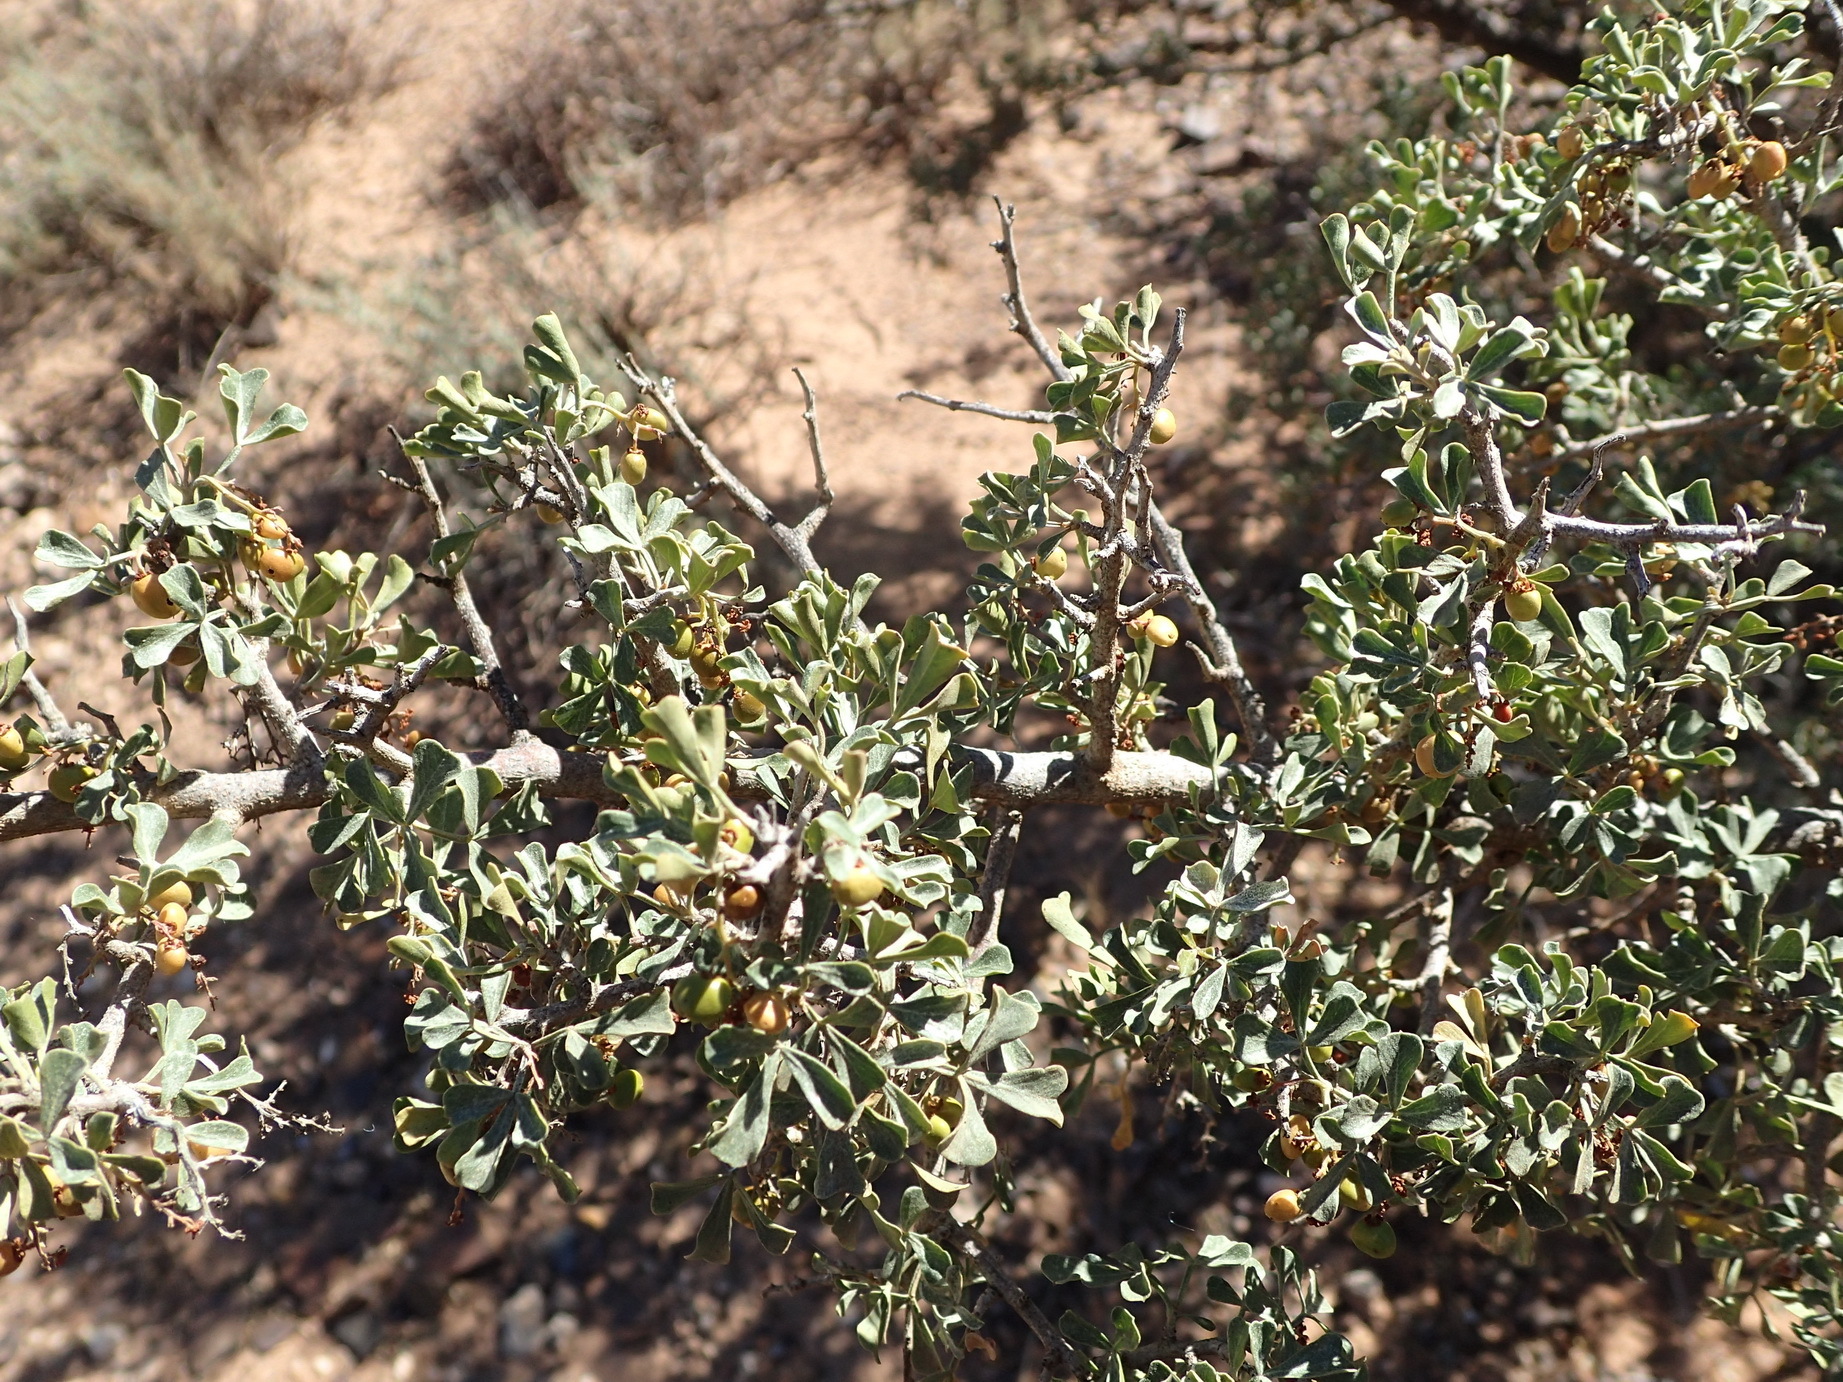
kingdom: Plantae
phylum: Tracheophyta
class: Magnoliopsida
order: Sapindales
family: Anacardiaceae
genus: Searsia
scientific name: Searsia burchellii
